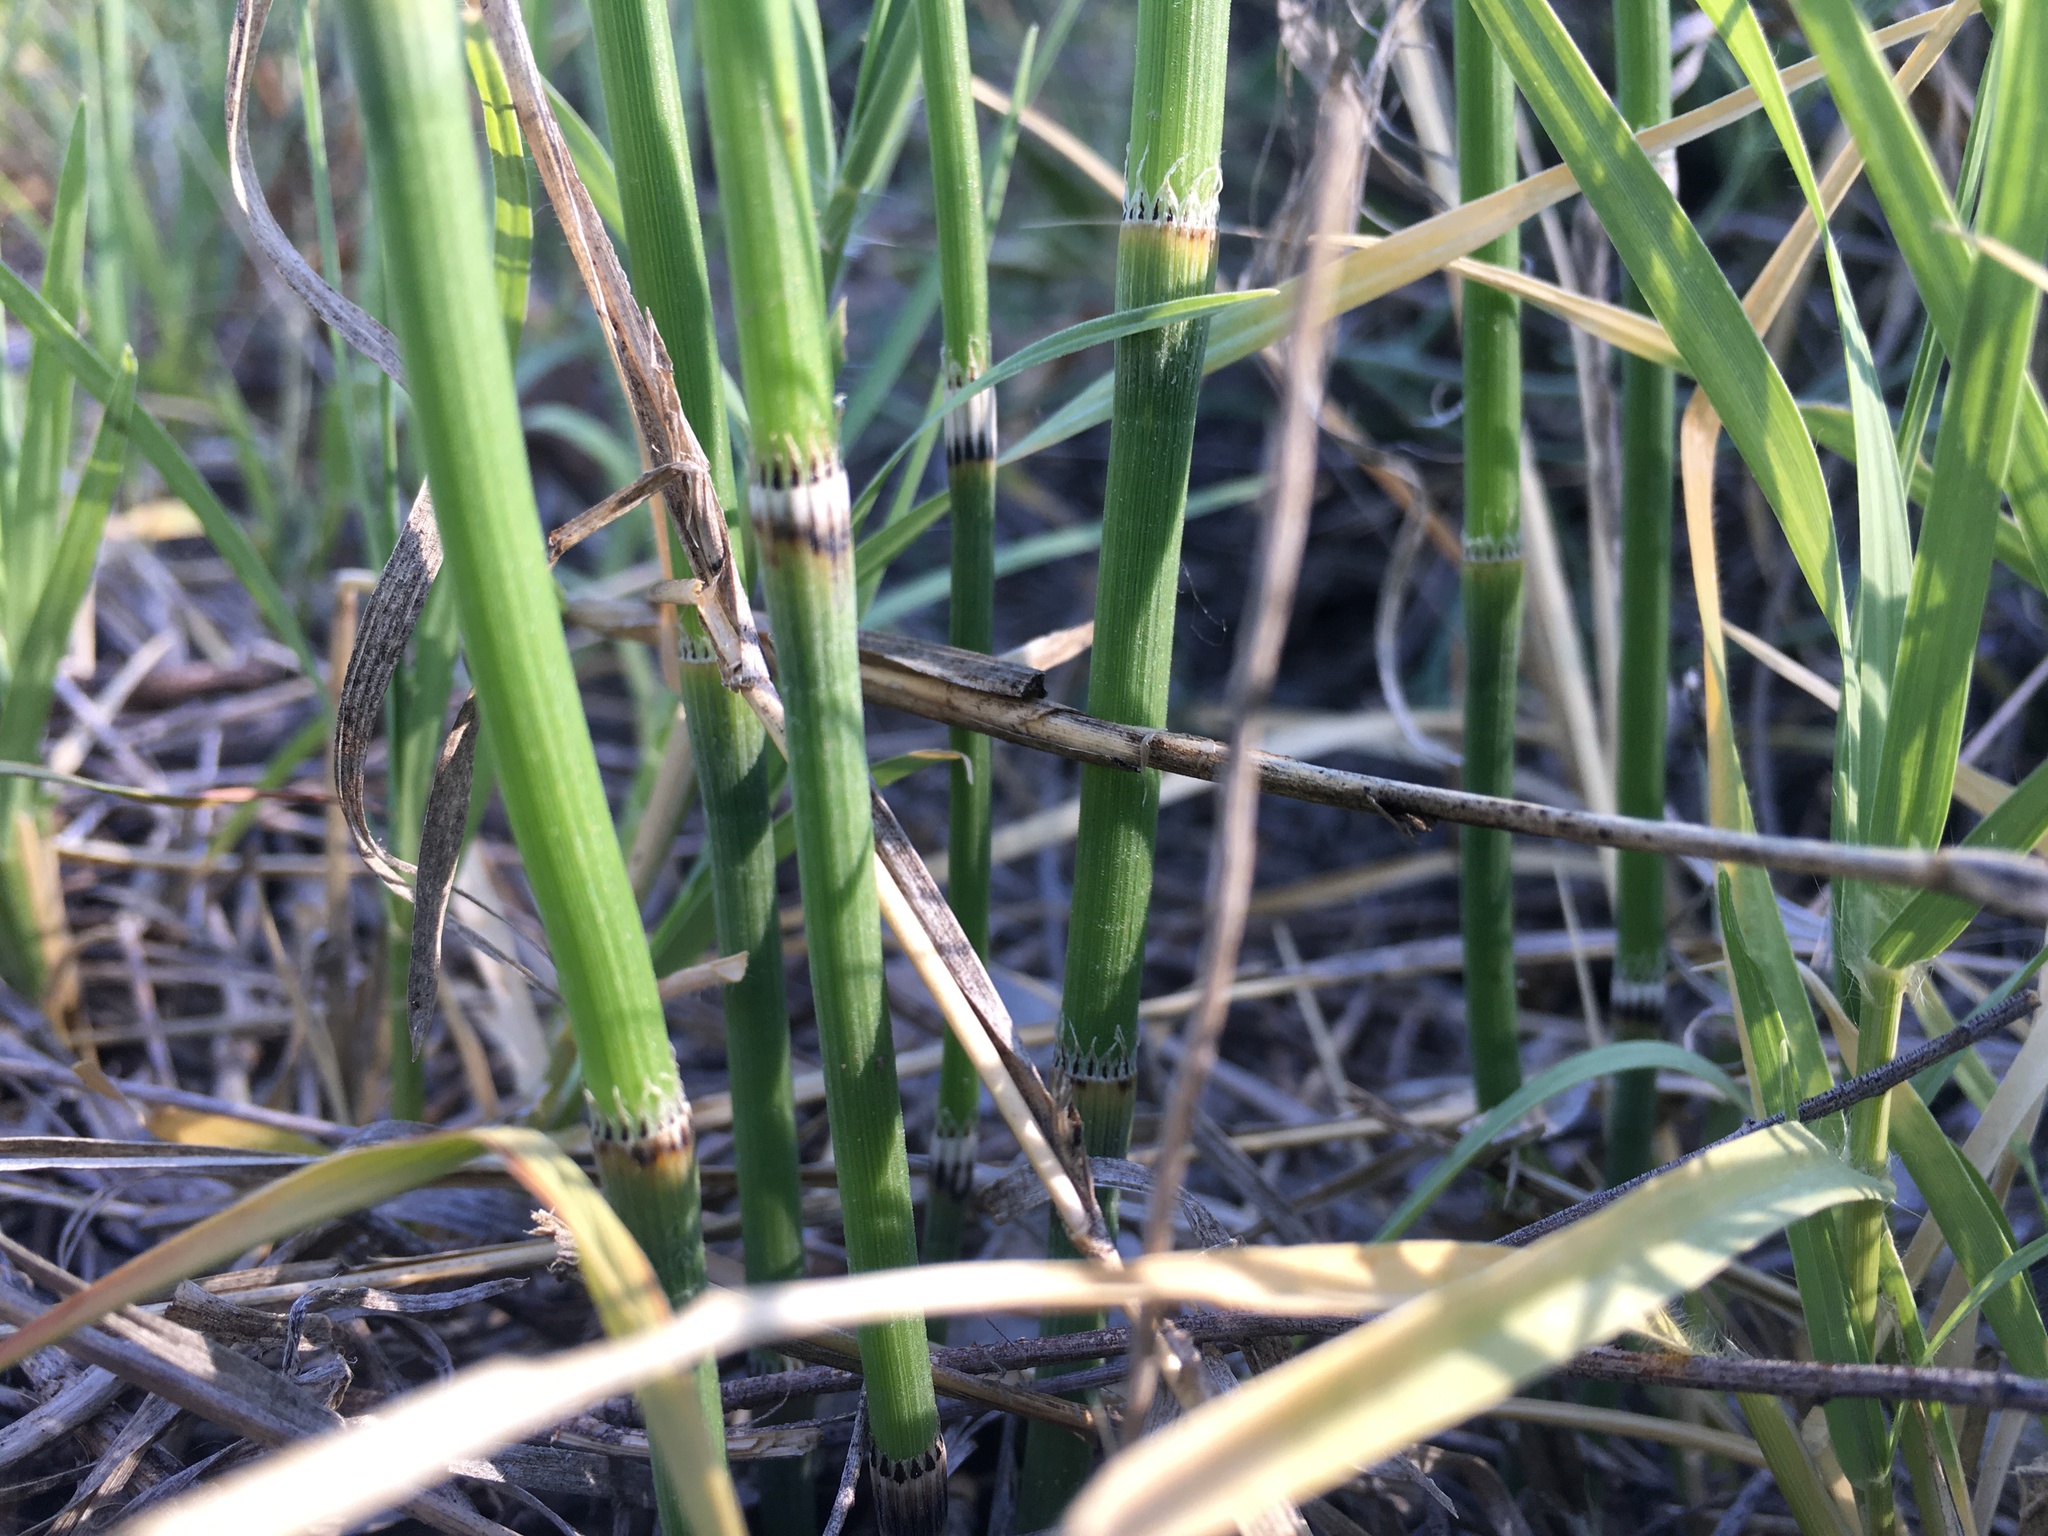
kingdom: Plantae
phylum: Tracheophyta
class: Polypodiopsida
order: Equisetales
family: Equisetaceae
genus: Equisetum
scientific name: Equisetum laevigatum
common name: Smooth scouring-rush
